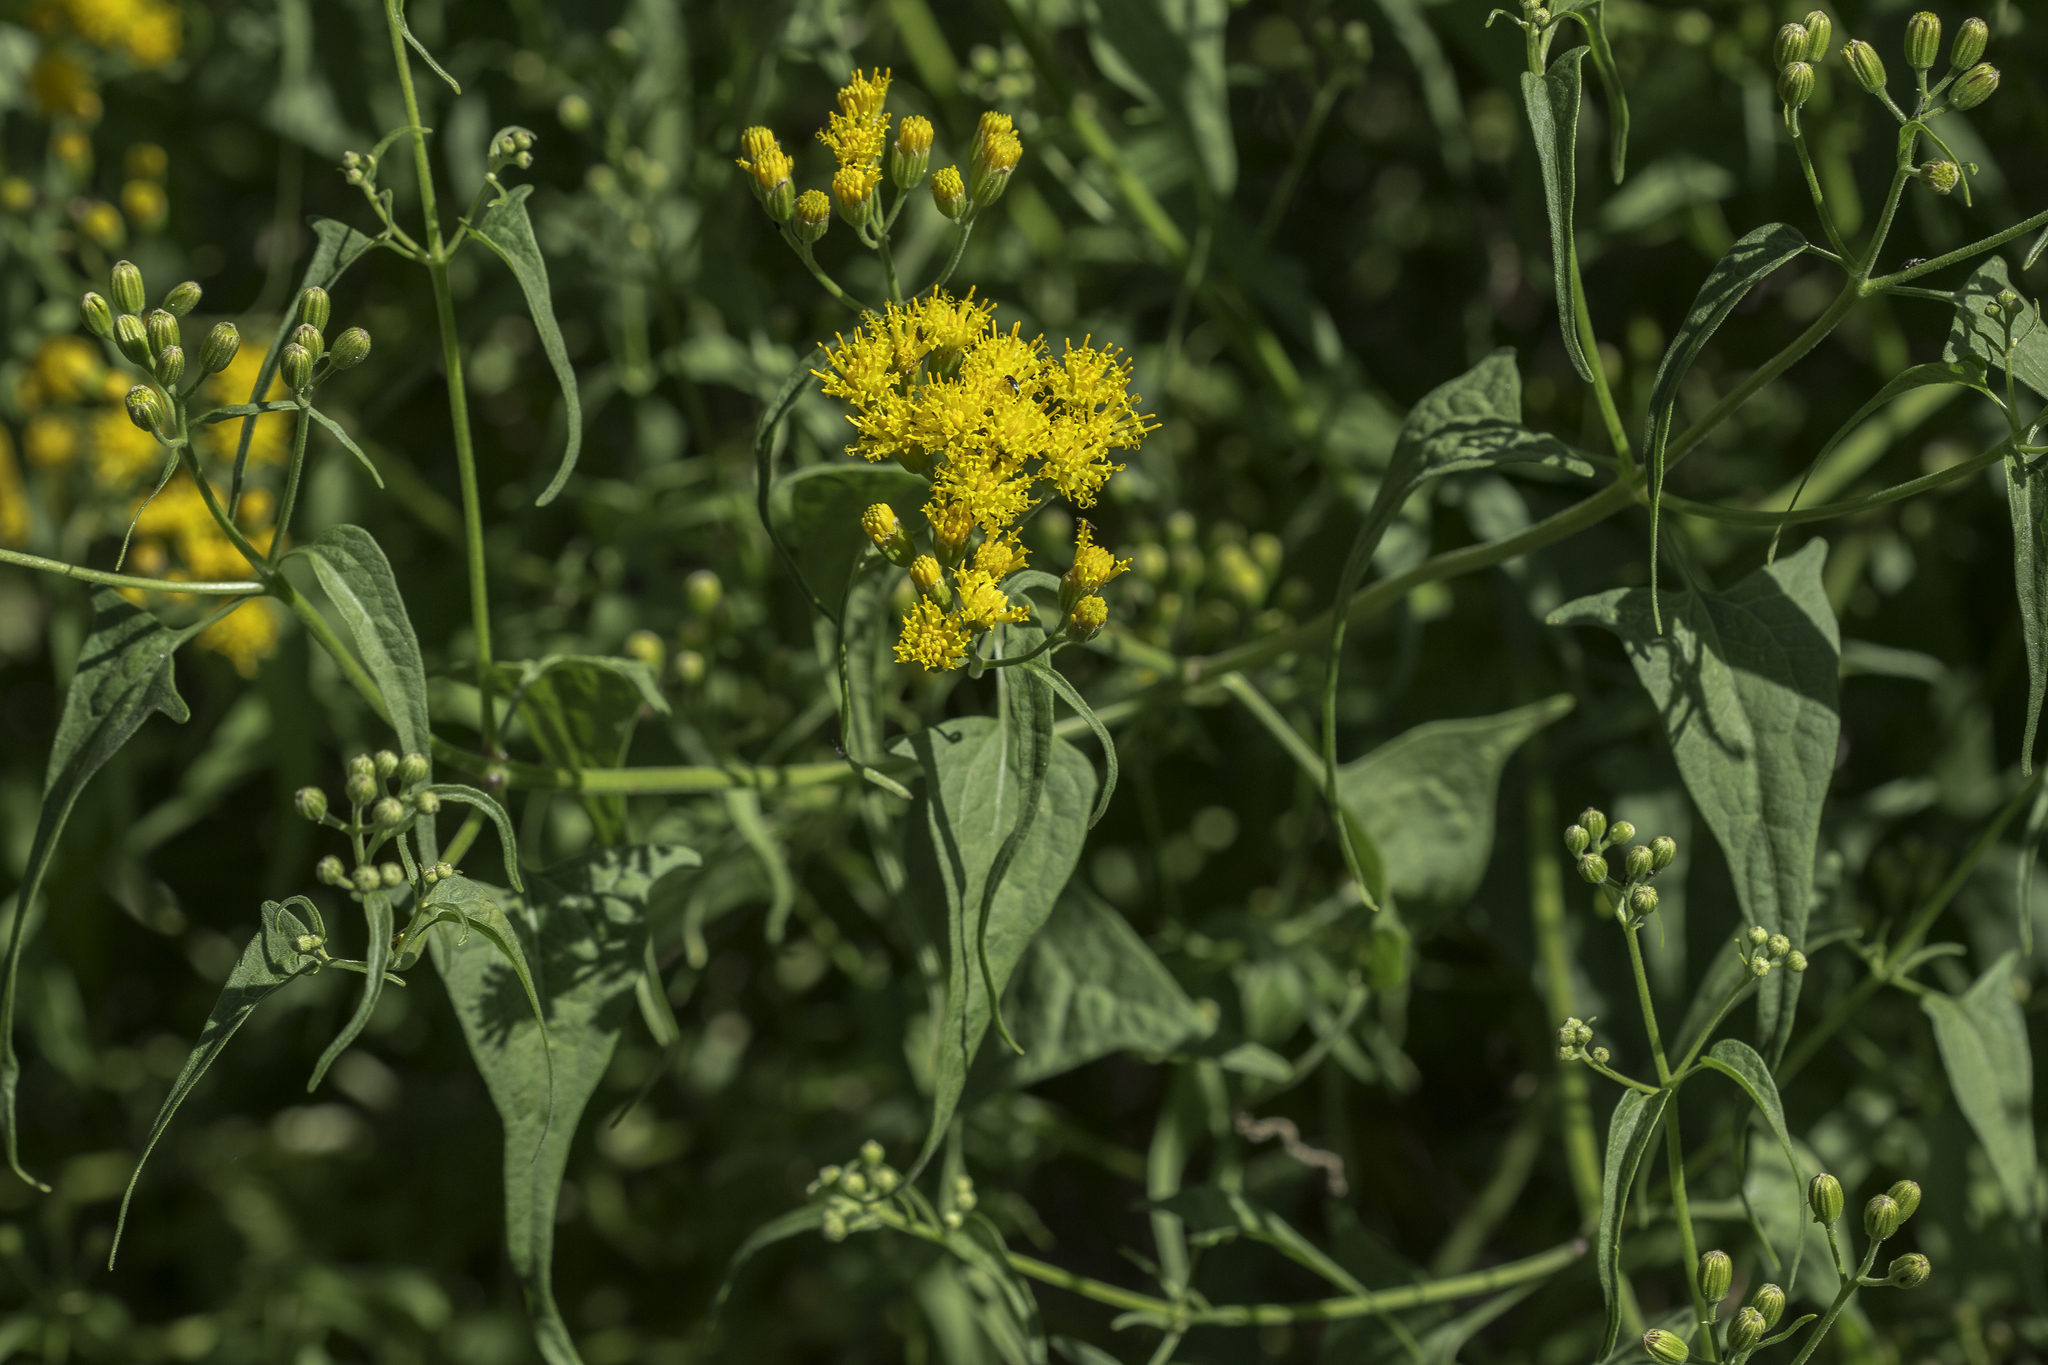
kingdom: Plantae
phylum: Tracheophyta
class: Magnoliopsida
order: Asterales
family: Asteraceae
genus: Pericome
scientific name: Pericome caudata
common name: Taperleaf
